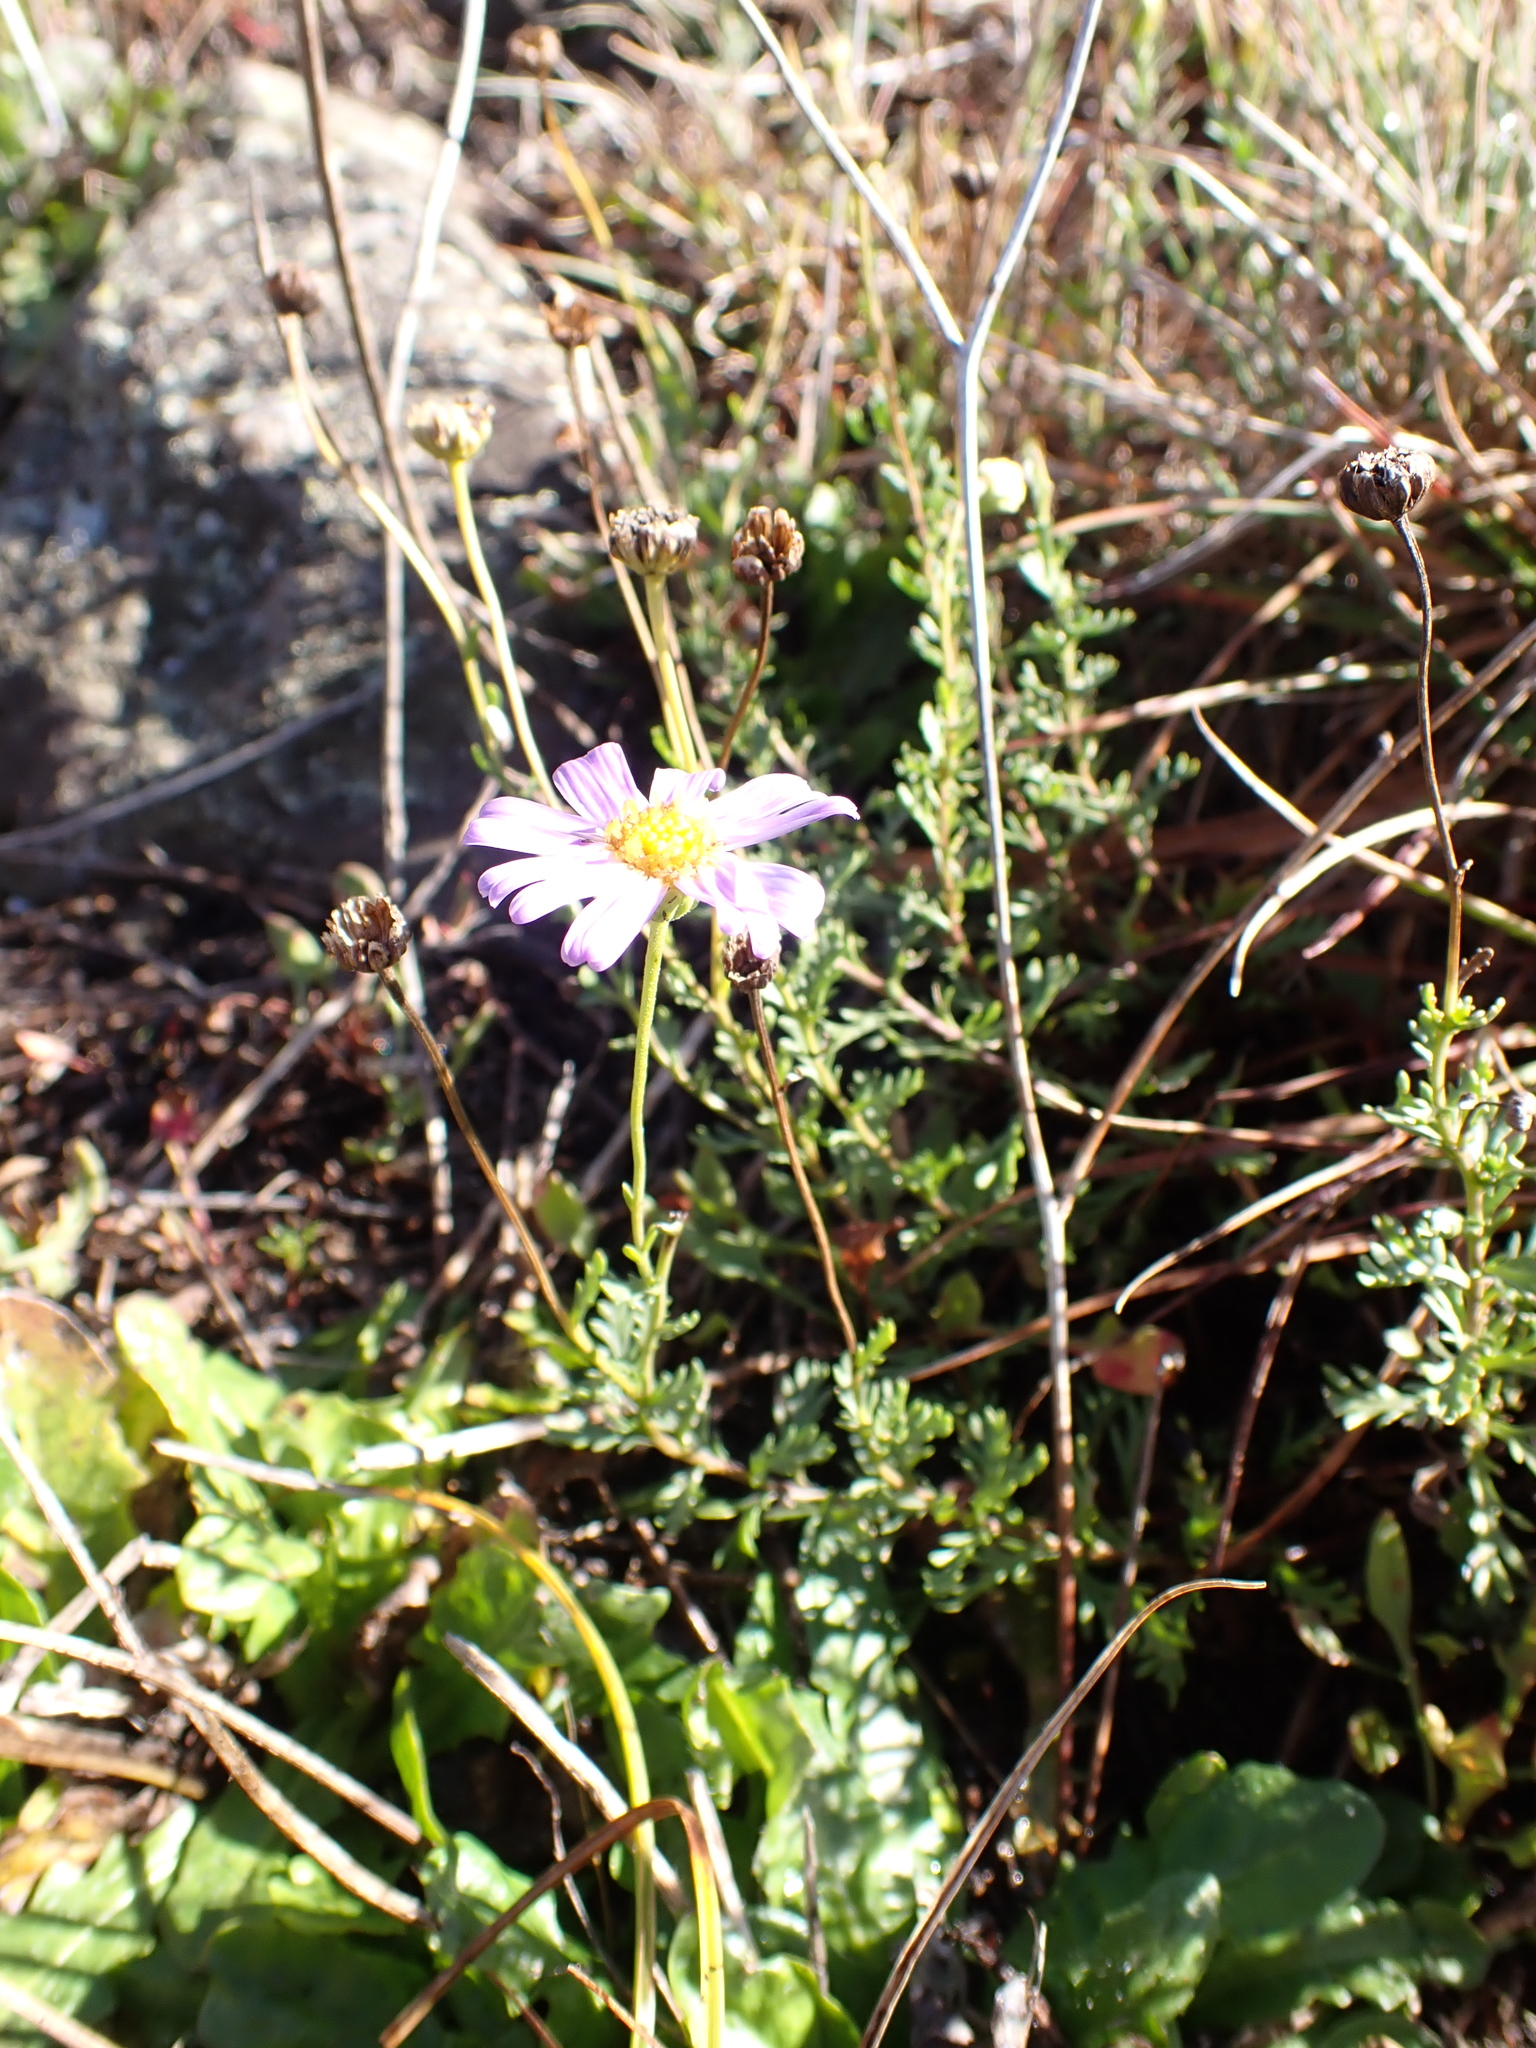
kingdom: Plantae
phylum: Tracheophyta
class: Magnoliopsida
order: Asterales
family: Asteraceae
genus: Brachyscome
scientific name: Brachyscome rigidula
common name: Leafy daisy
